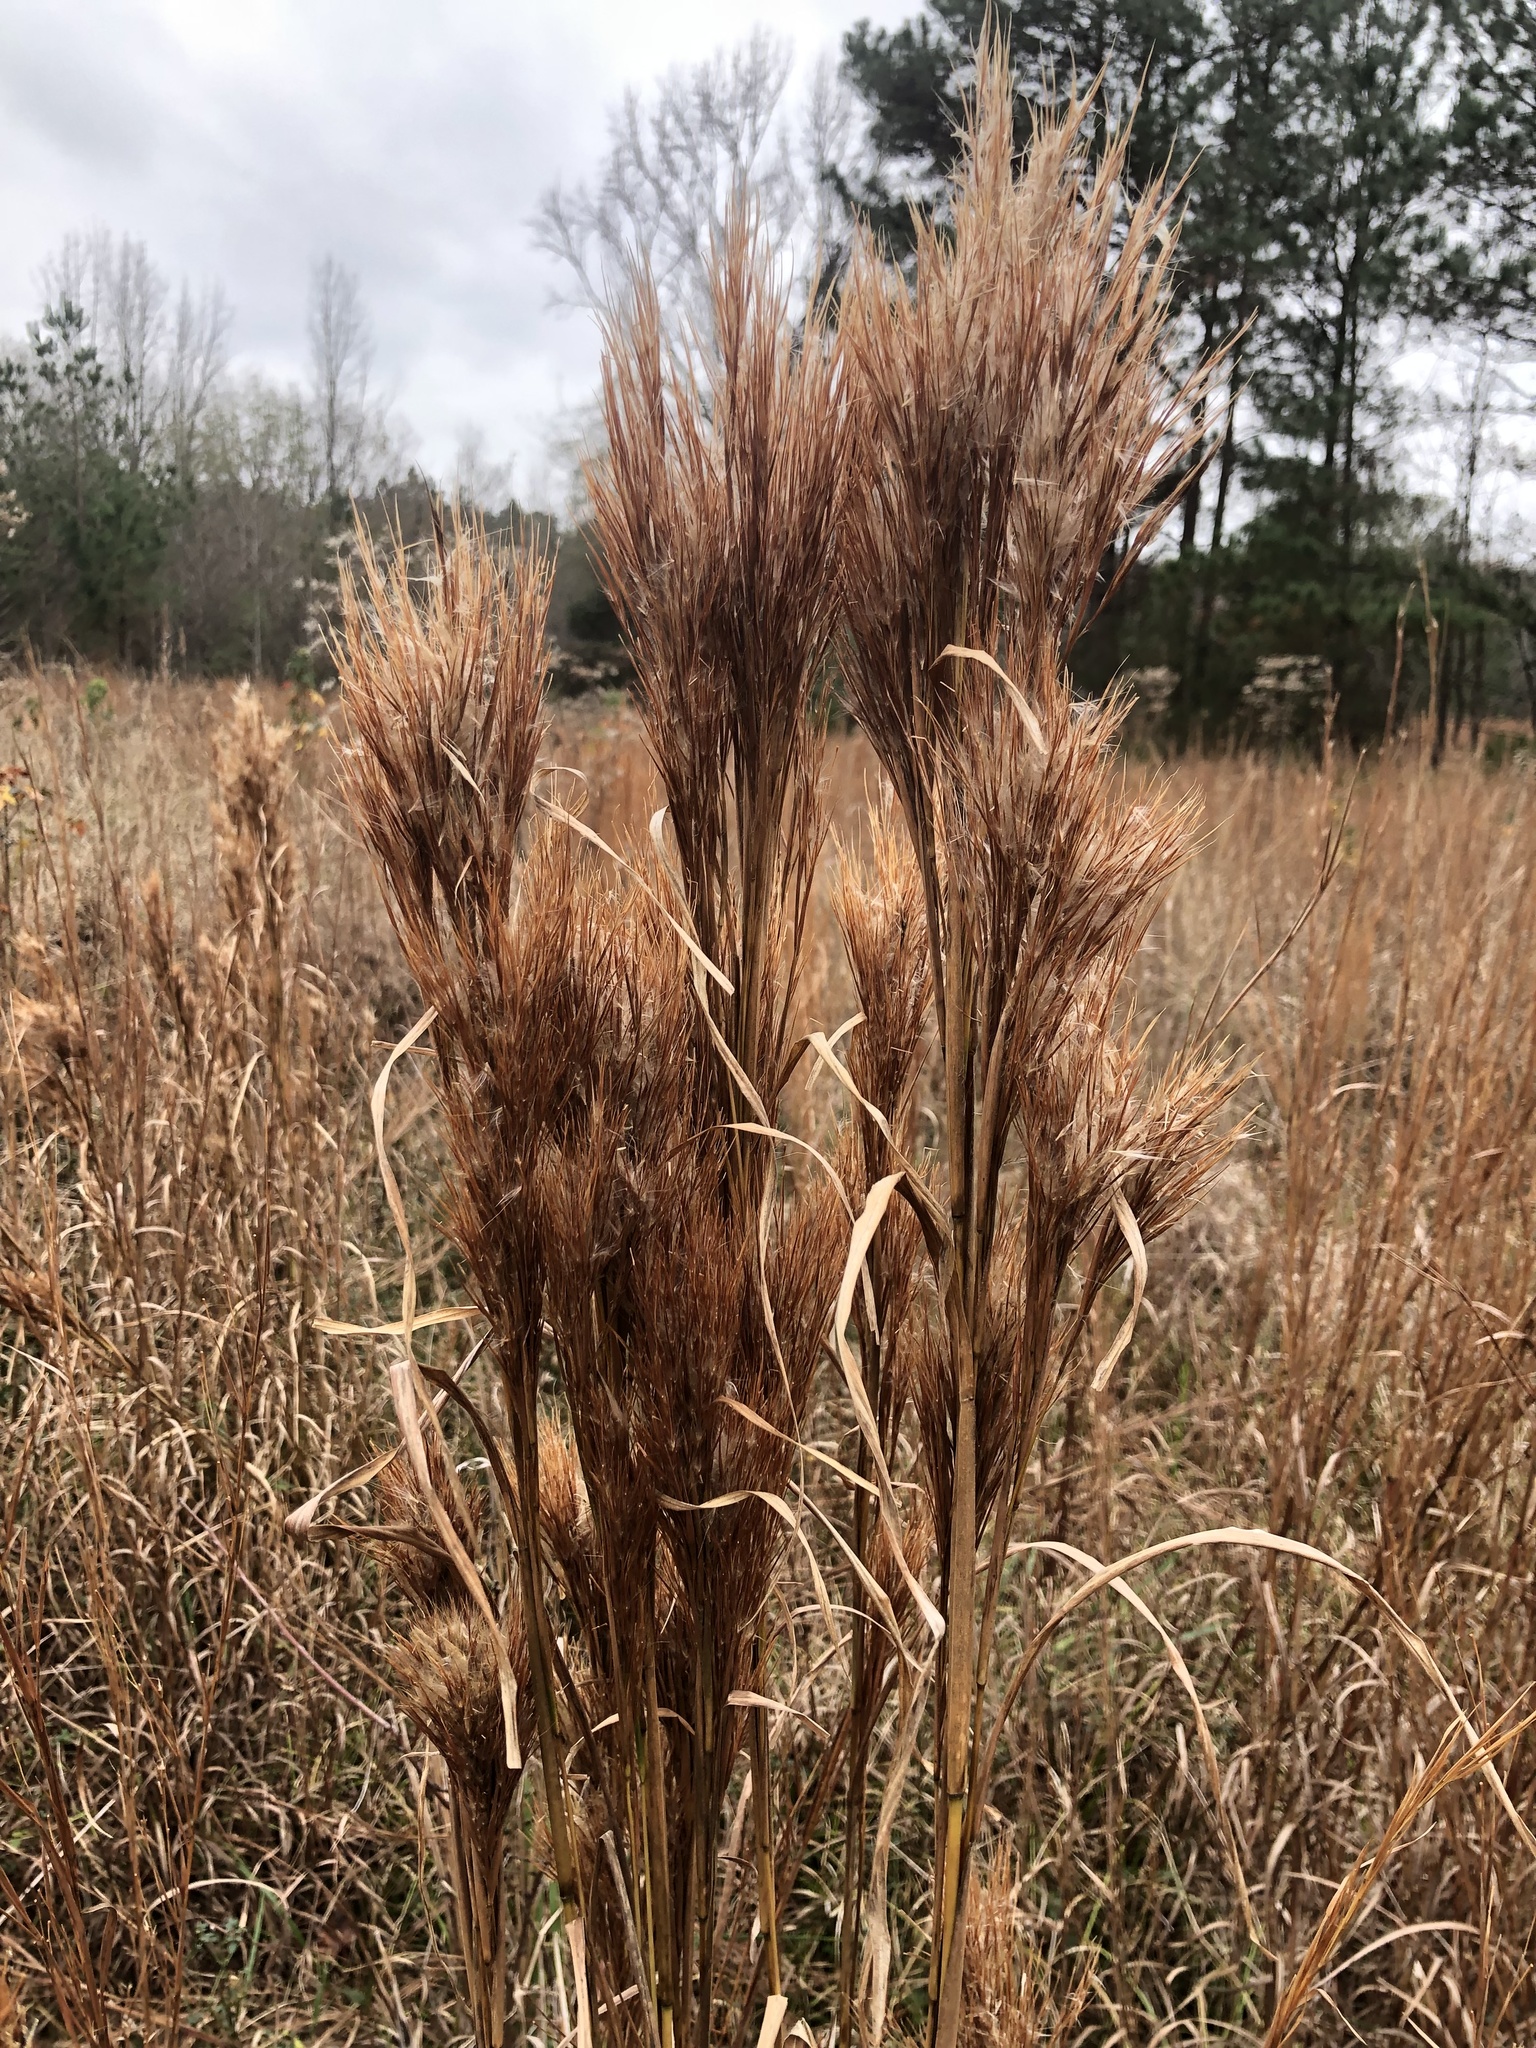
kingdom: Plantae
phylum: Tracheophyta
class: Liliopsida
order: Poales
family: Poaceae
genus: Andropogon
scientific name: Andropogon tenuispatheus
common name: Bushy bluestem
